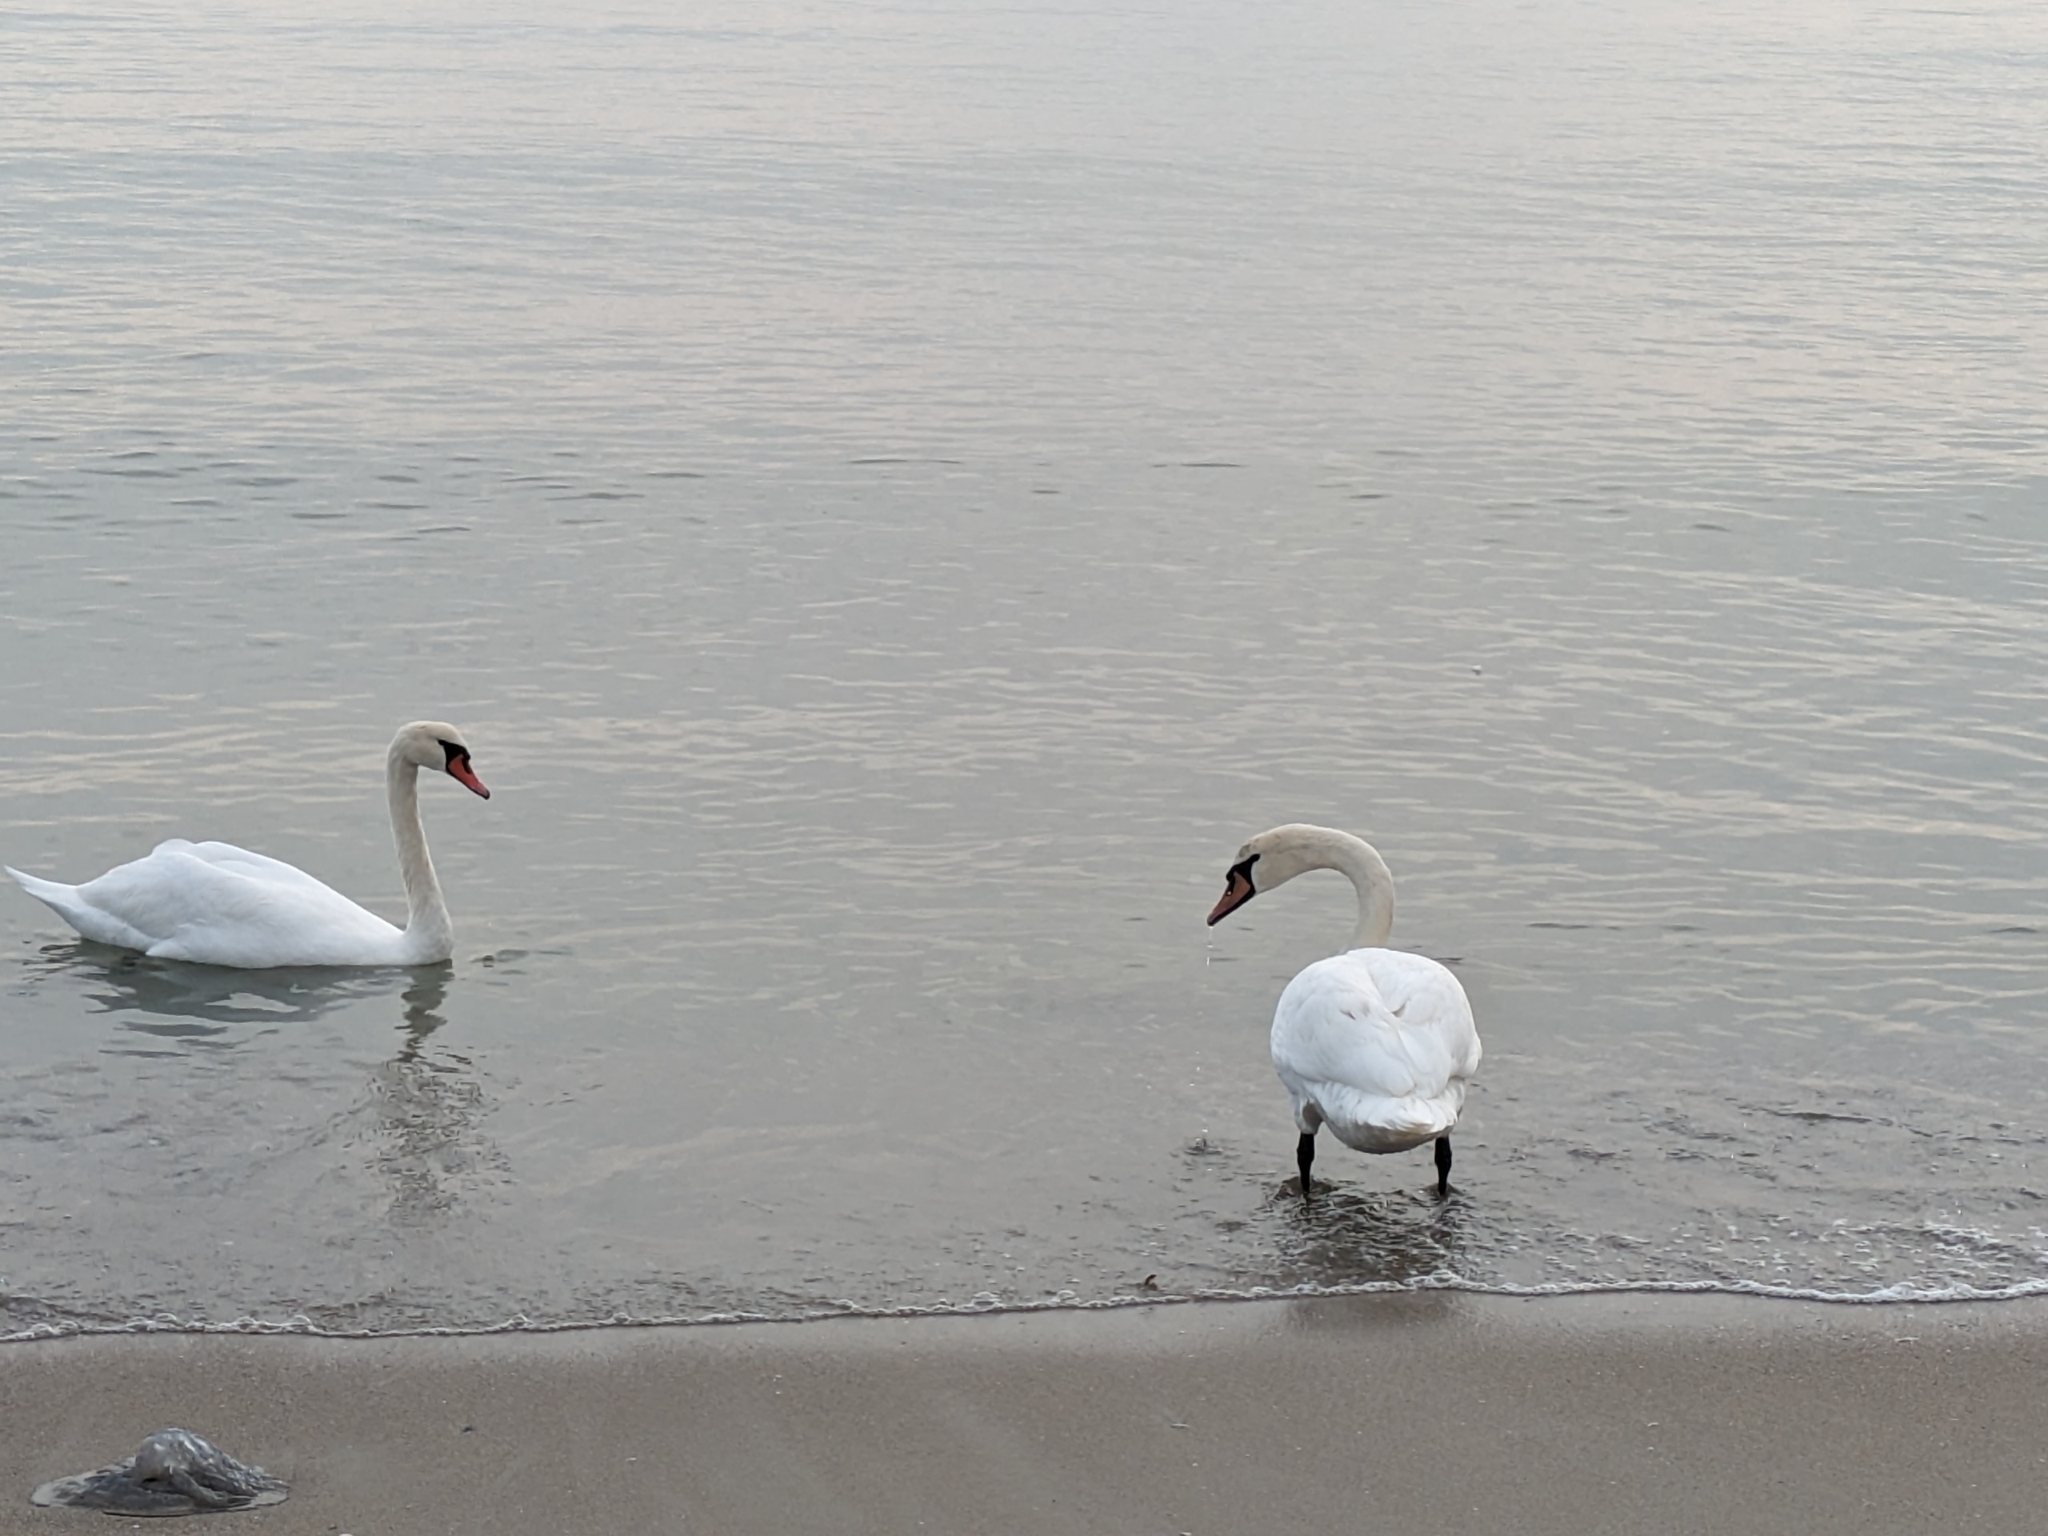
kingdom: Animalia
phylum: Chordata
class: Aves
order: Anseriformes
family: Anatidae
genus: Cygnus
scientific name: Cygnus olor
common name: Mute swan
